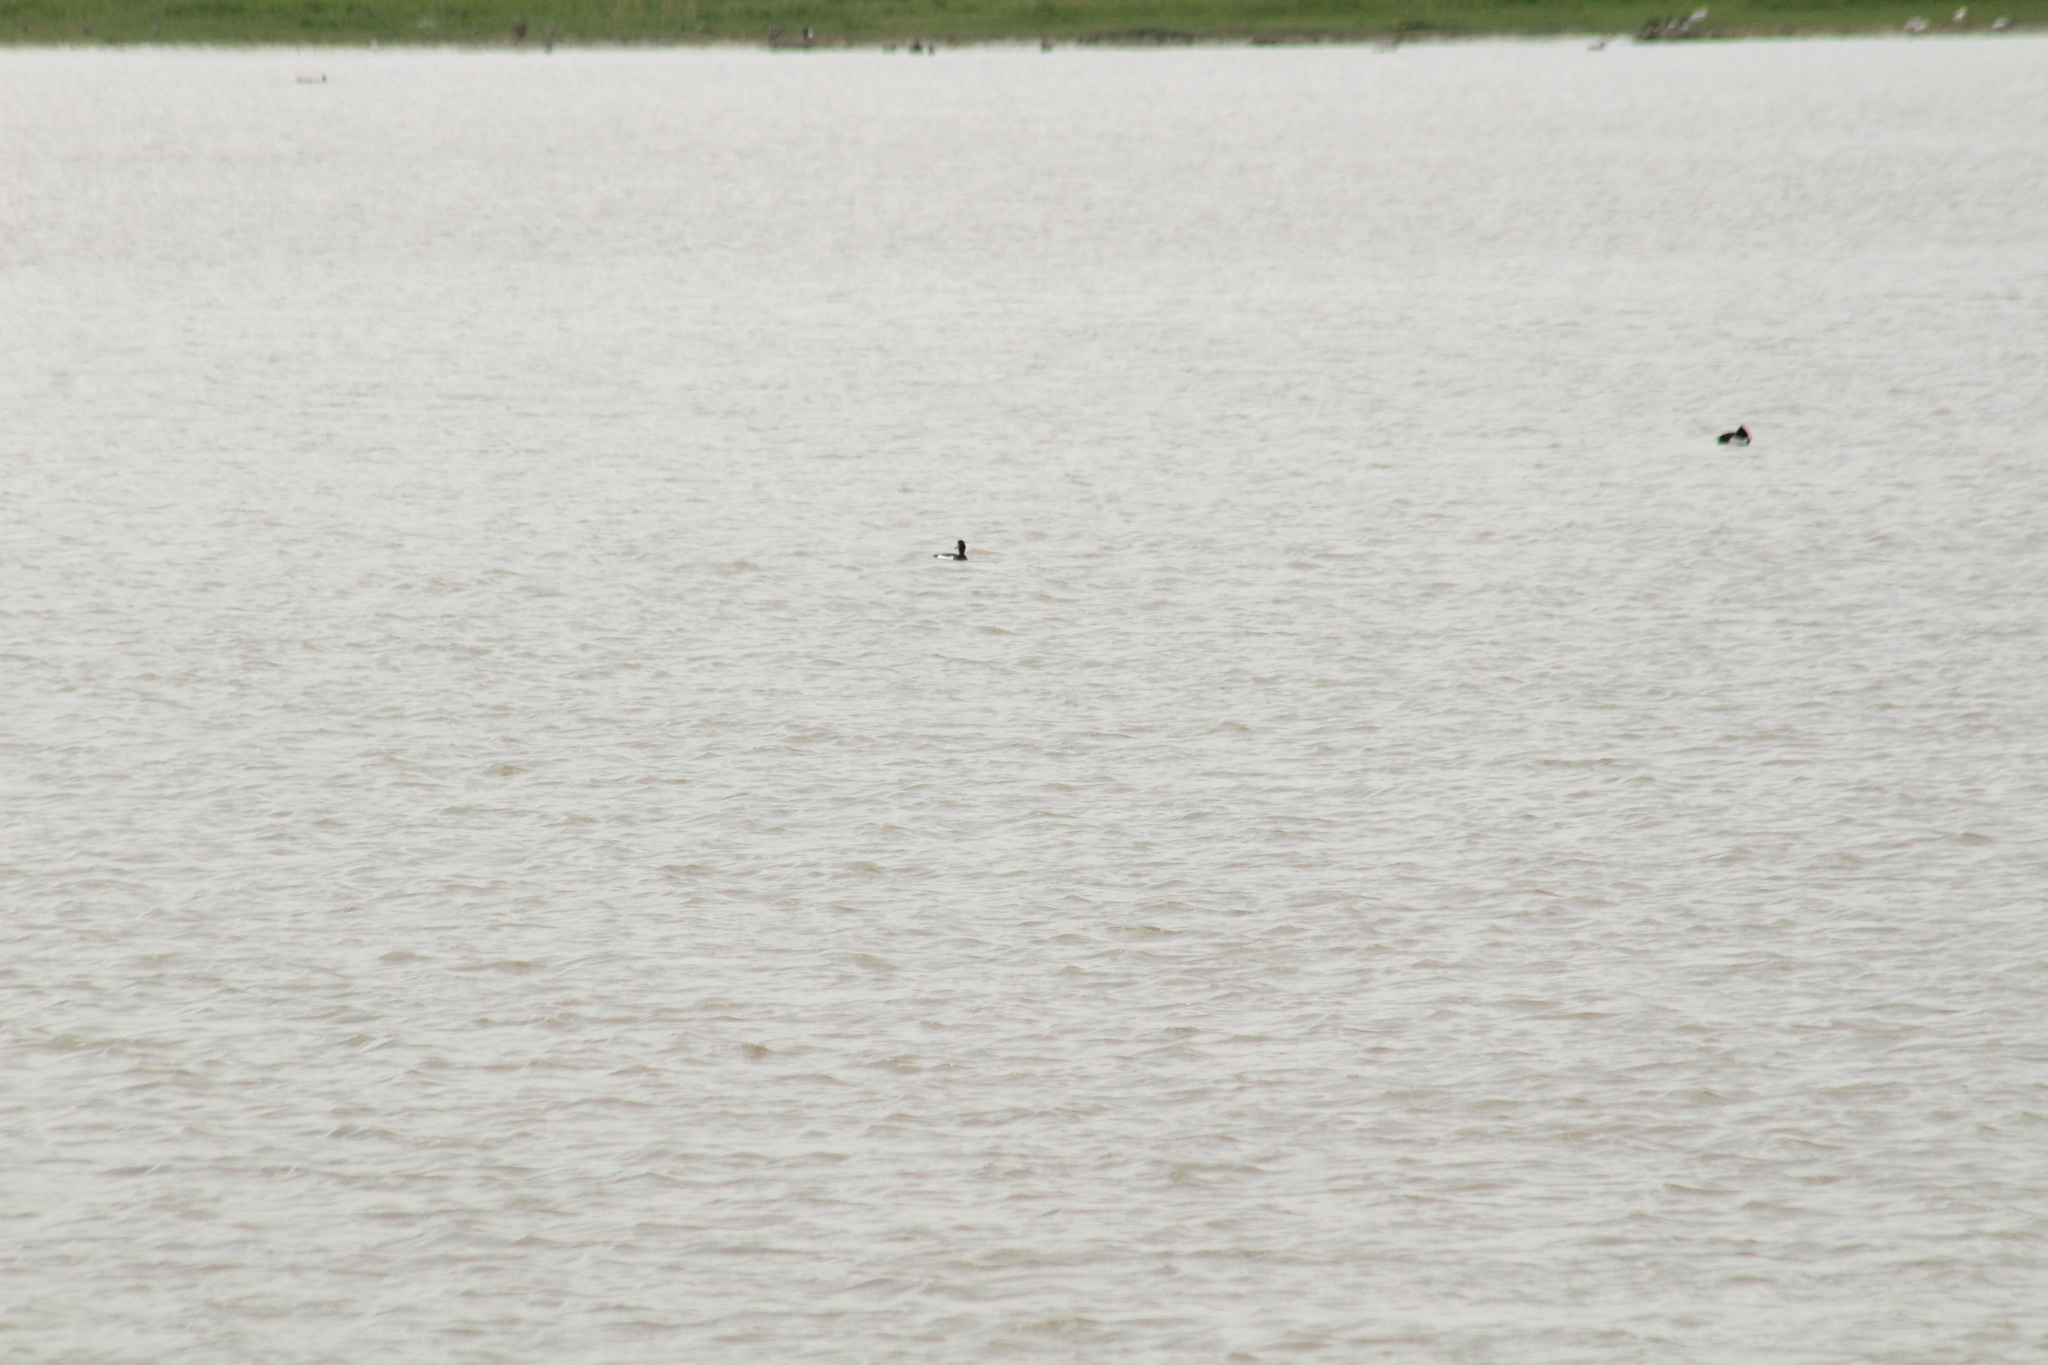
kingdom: Animalia
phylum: Chordata
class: Aves
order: Anseriformes
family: Anatidae
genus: Aythya
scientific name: Aythya fuligula
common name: Tufted duck
